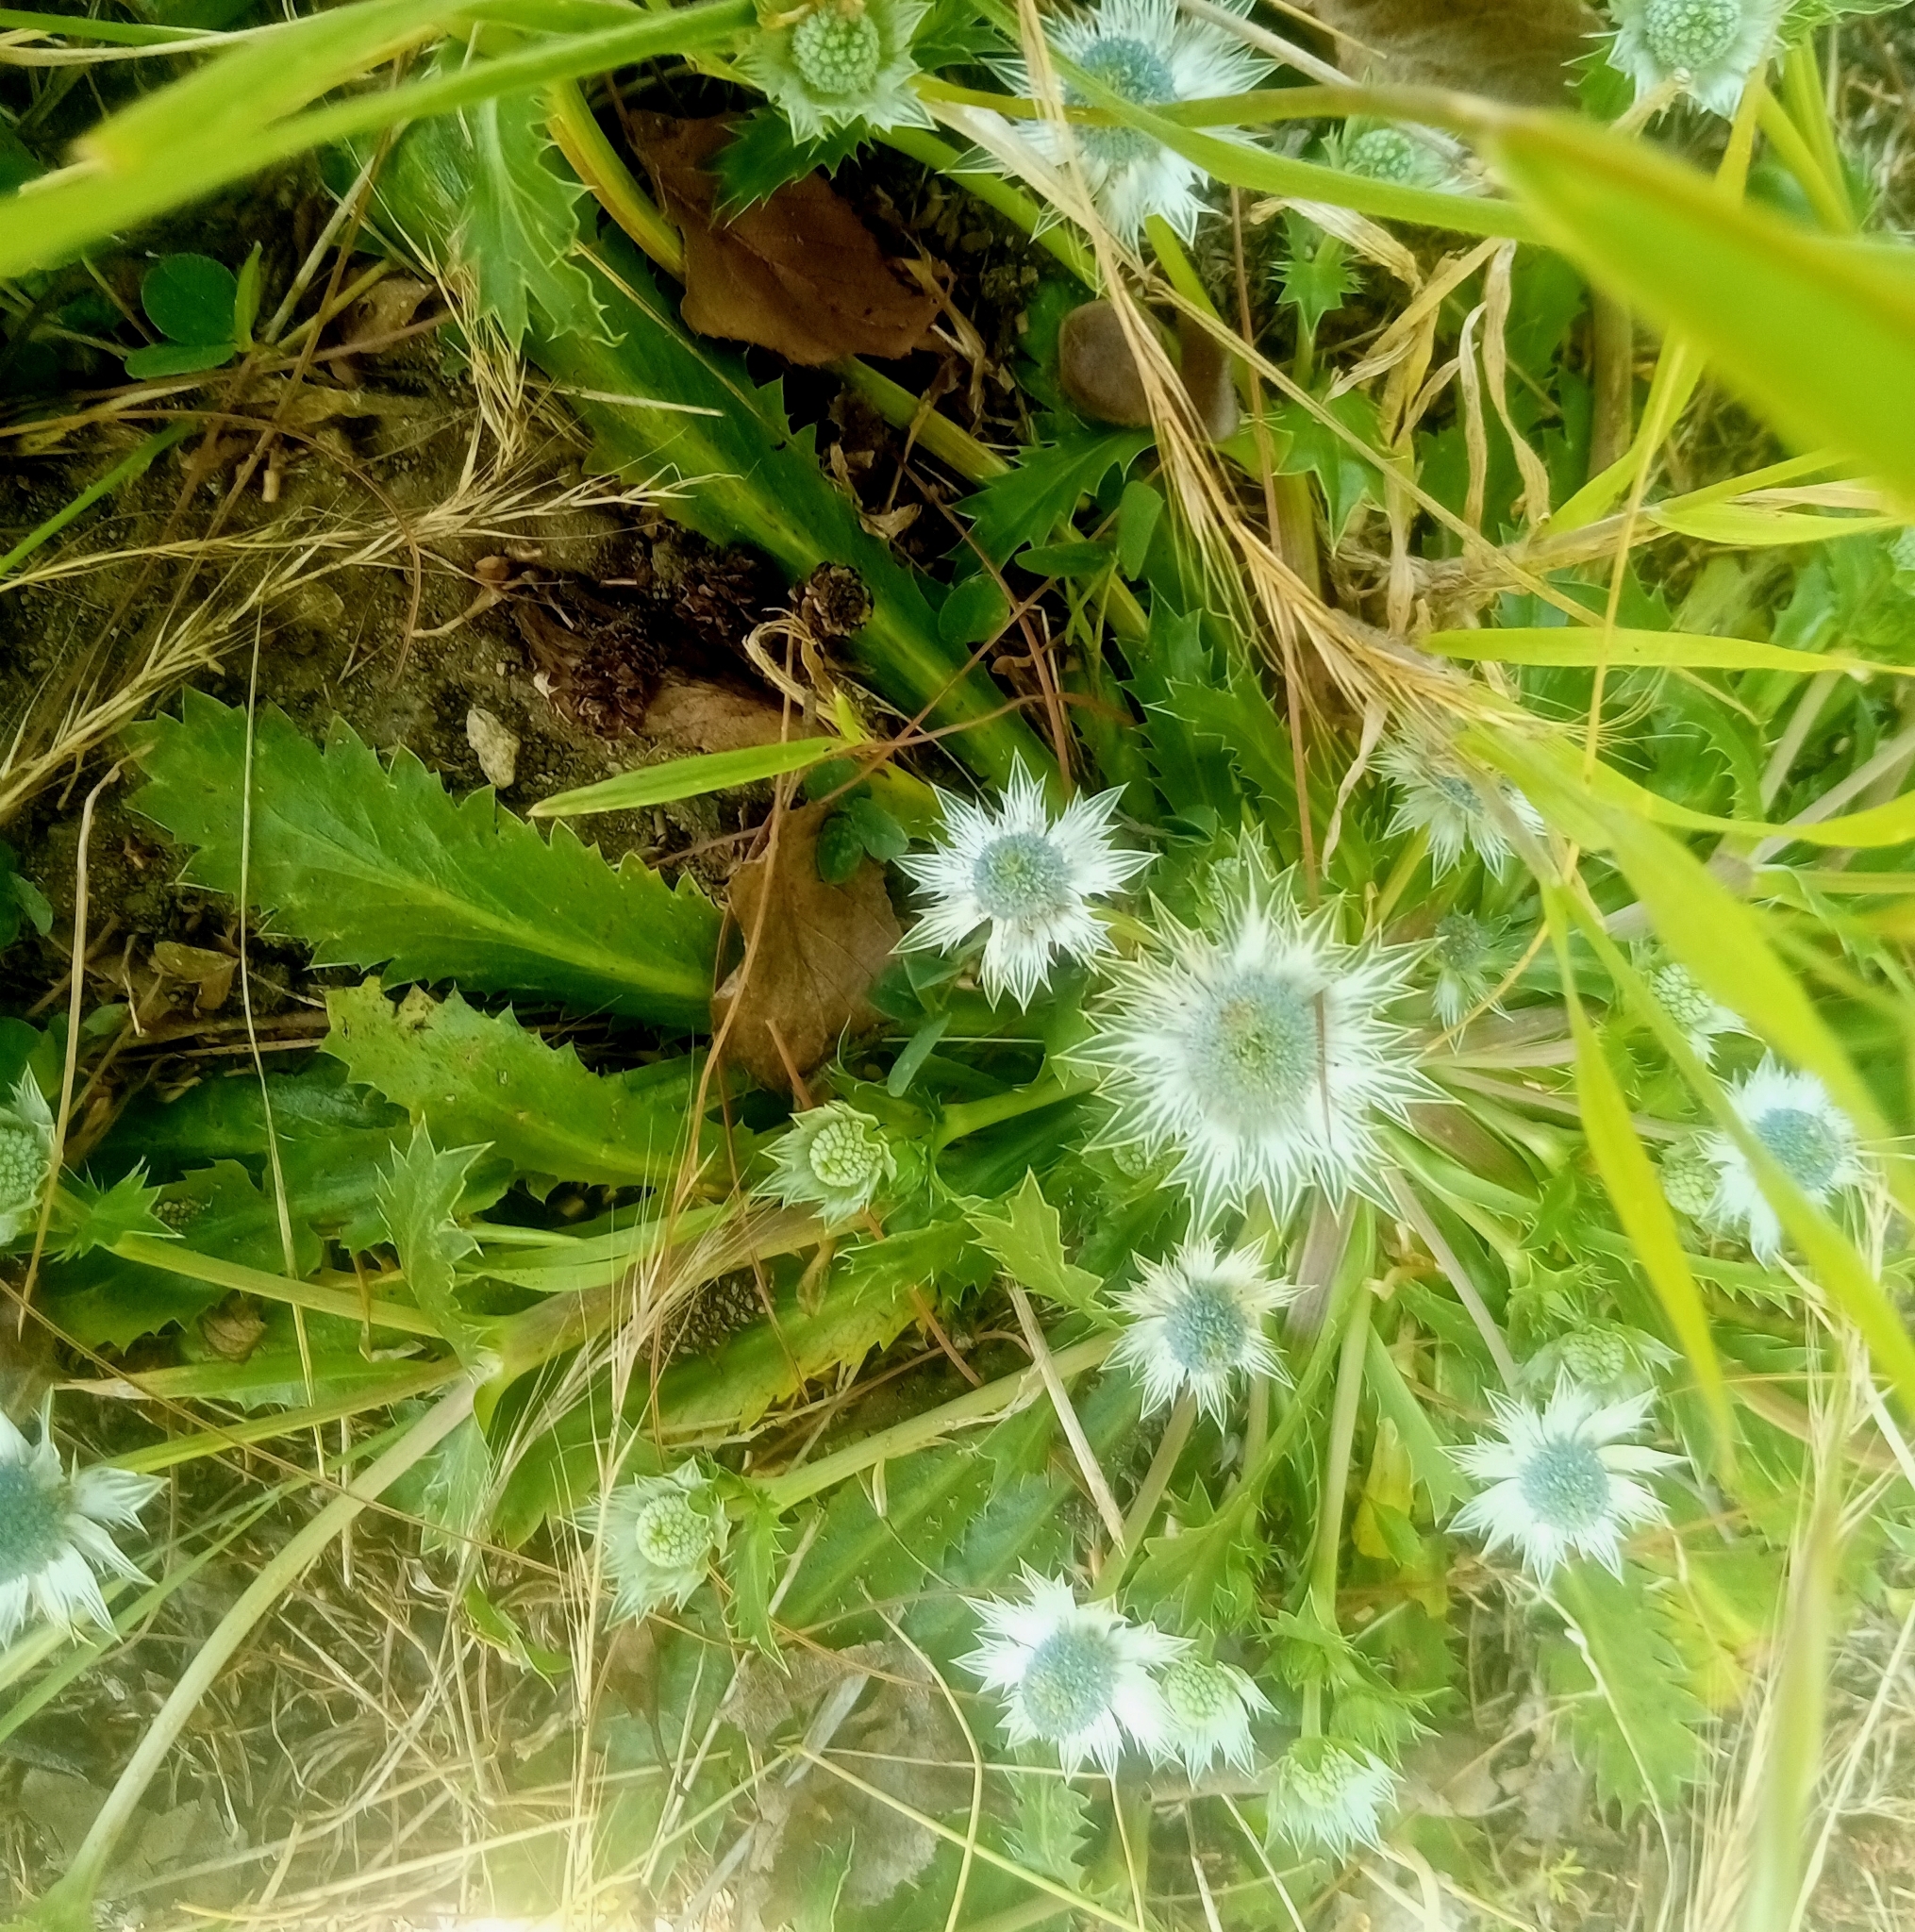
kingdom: Plantae
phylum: Tracheophyta
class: Magnoliopsida
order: Apiales
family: Apiaceae
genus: Eryngium
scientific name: Eryngium carlinae
